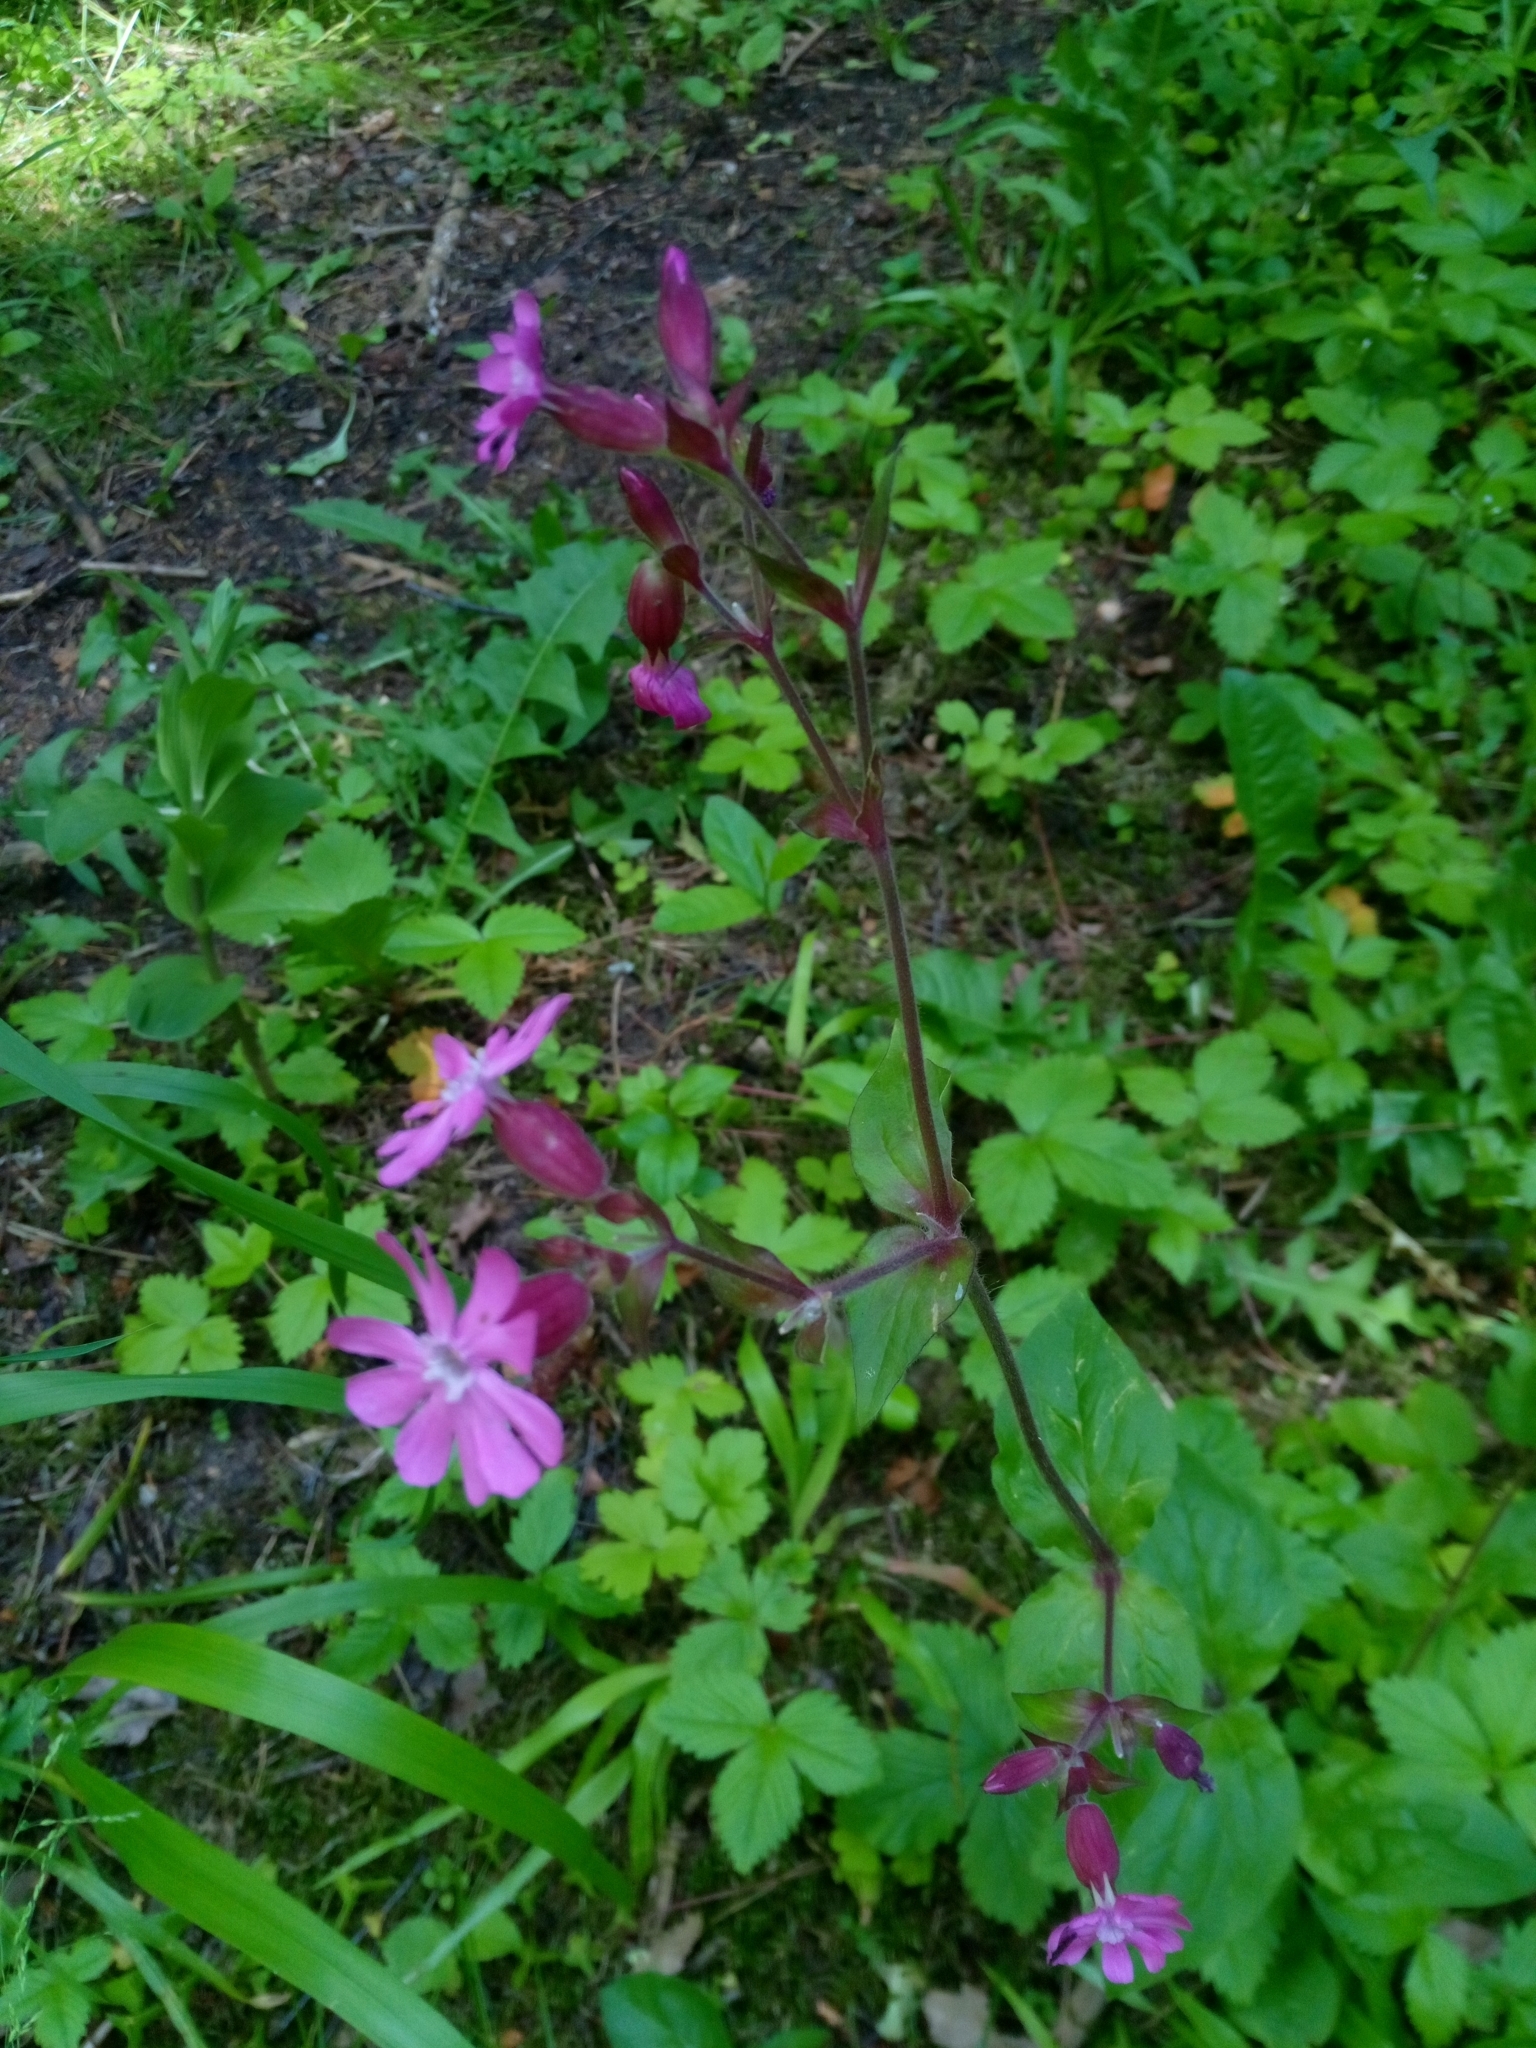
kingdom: Plantae
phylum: Tracheophyta
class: Magnoliopsida
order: Caryophyllales
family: Caryophyllaceae
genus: Silene
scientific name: Silene dioica
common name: Red campion
